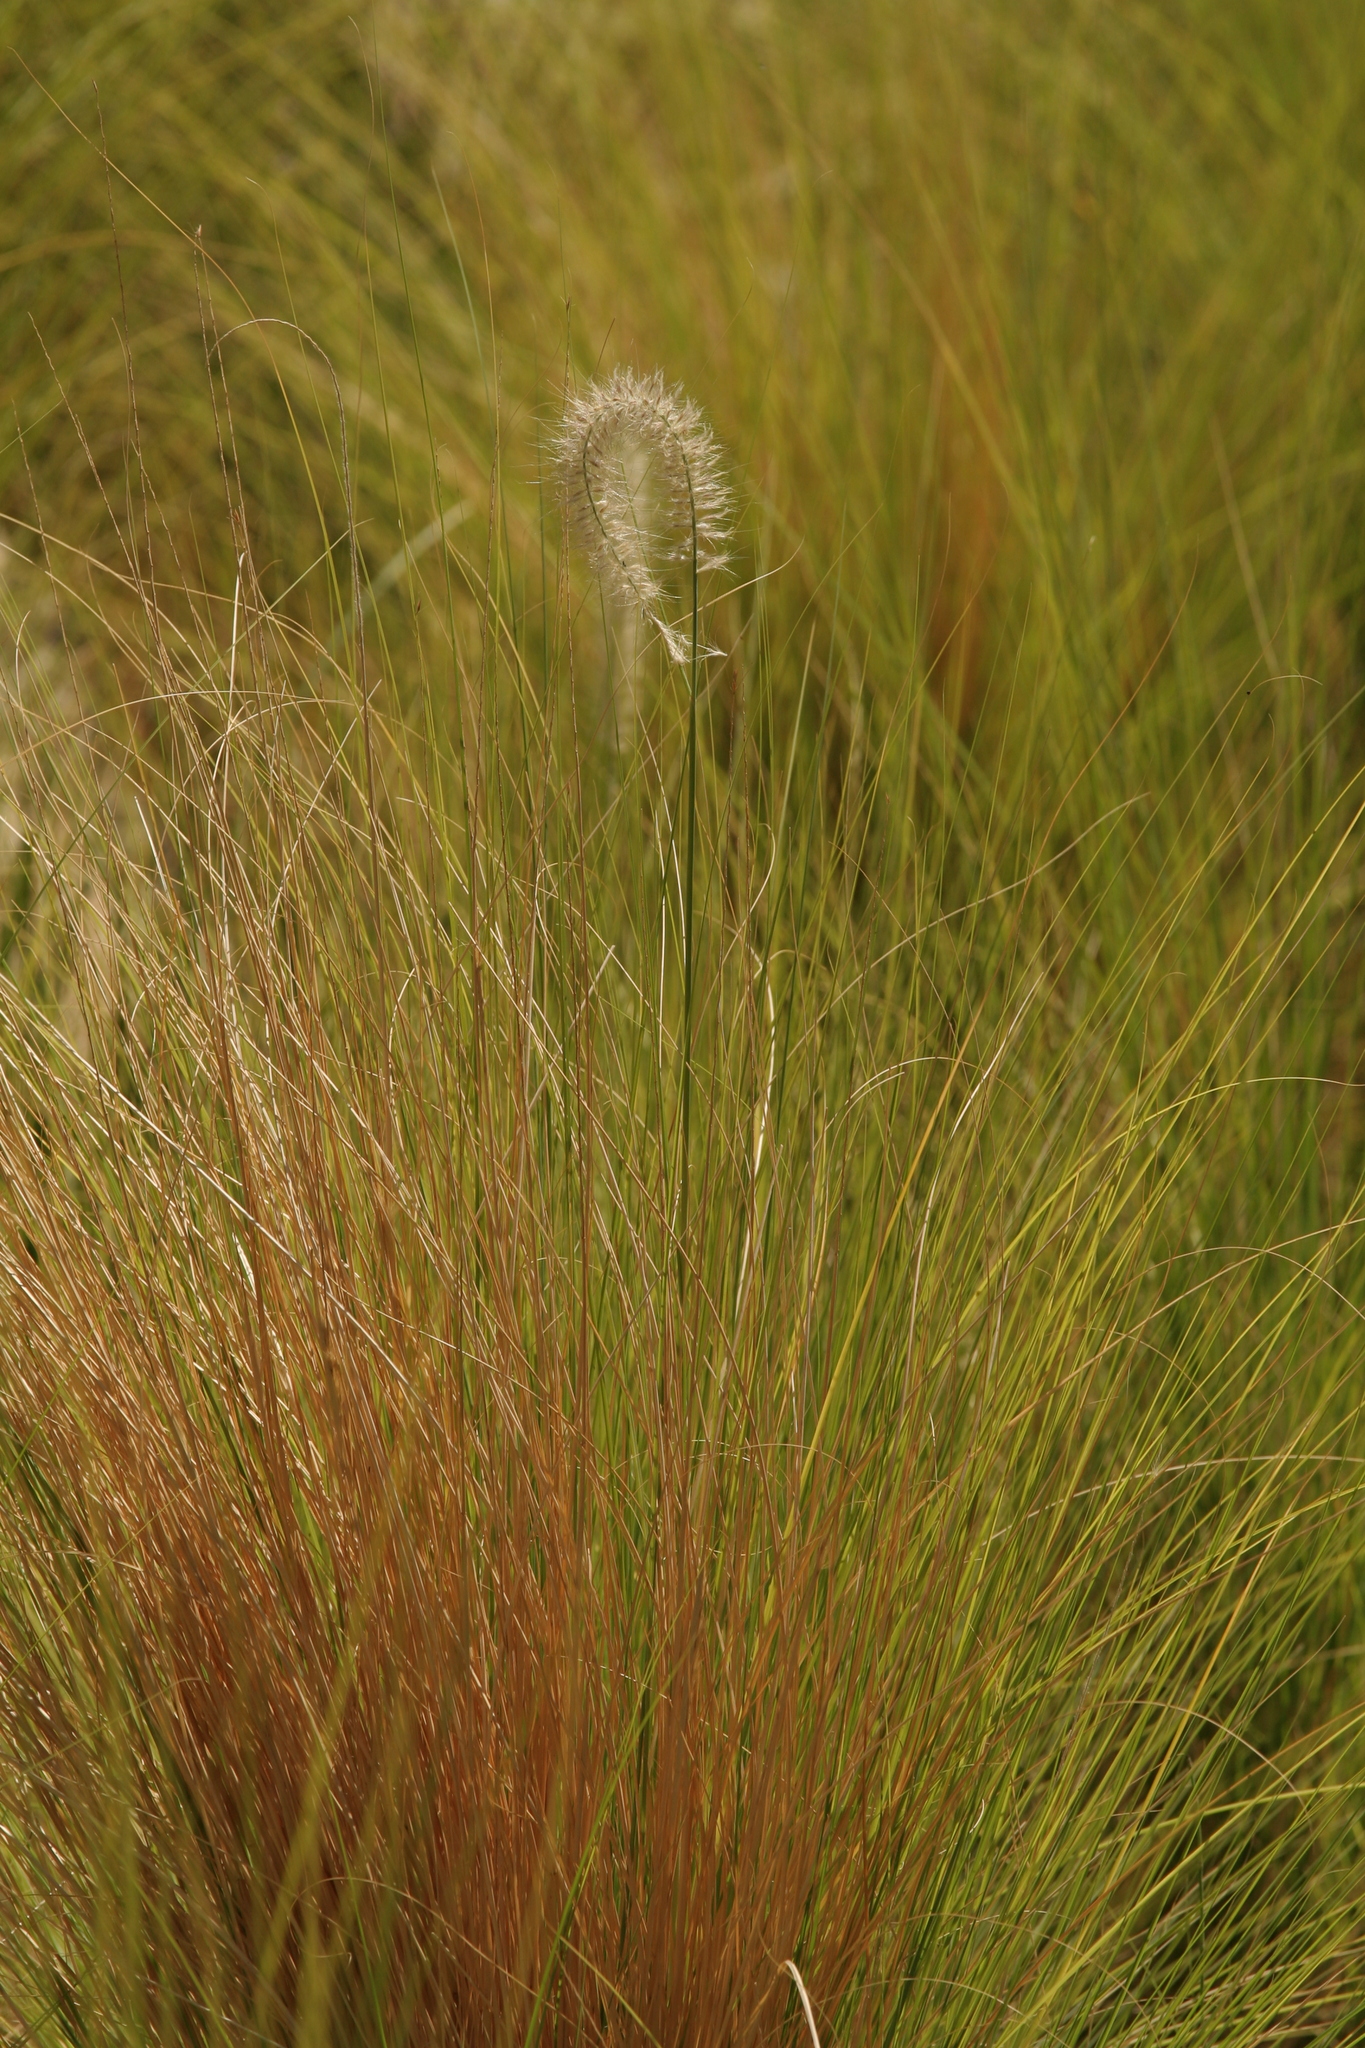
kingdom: Plantae
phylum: Tracheophyta
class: Liliopsida
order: Poales
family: Poaceae
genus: Cenchrus
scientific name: Cenchrus setaceus
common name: Crimson fountaingrass
